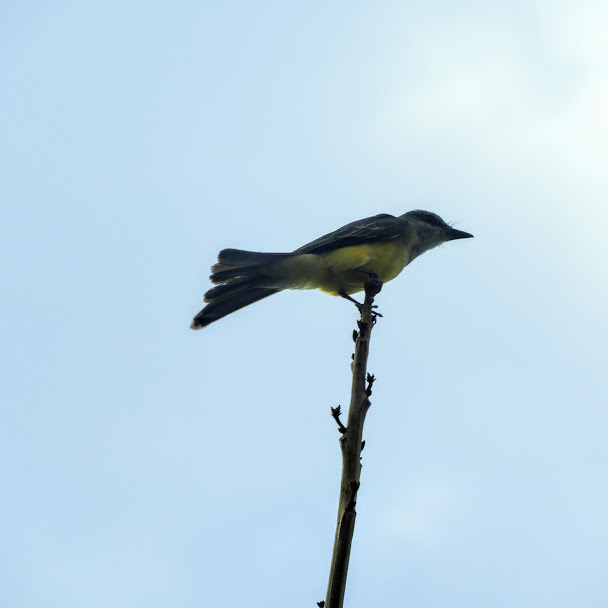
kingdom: Animalia
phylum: Chordata
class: Aves
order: Passeriformes
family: Tyrannidae
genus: Tyrannus
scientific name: Tyrannus melancholicus
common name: Tropical kingbird
